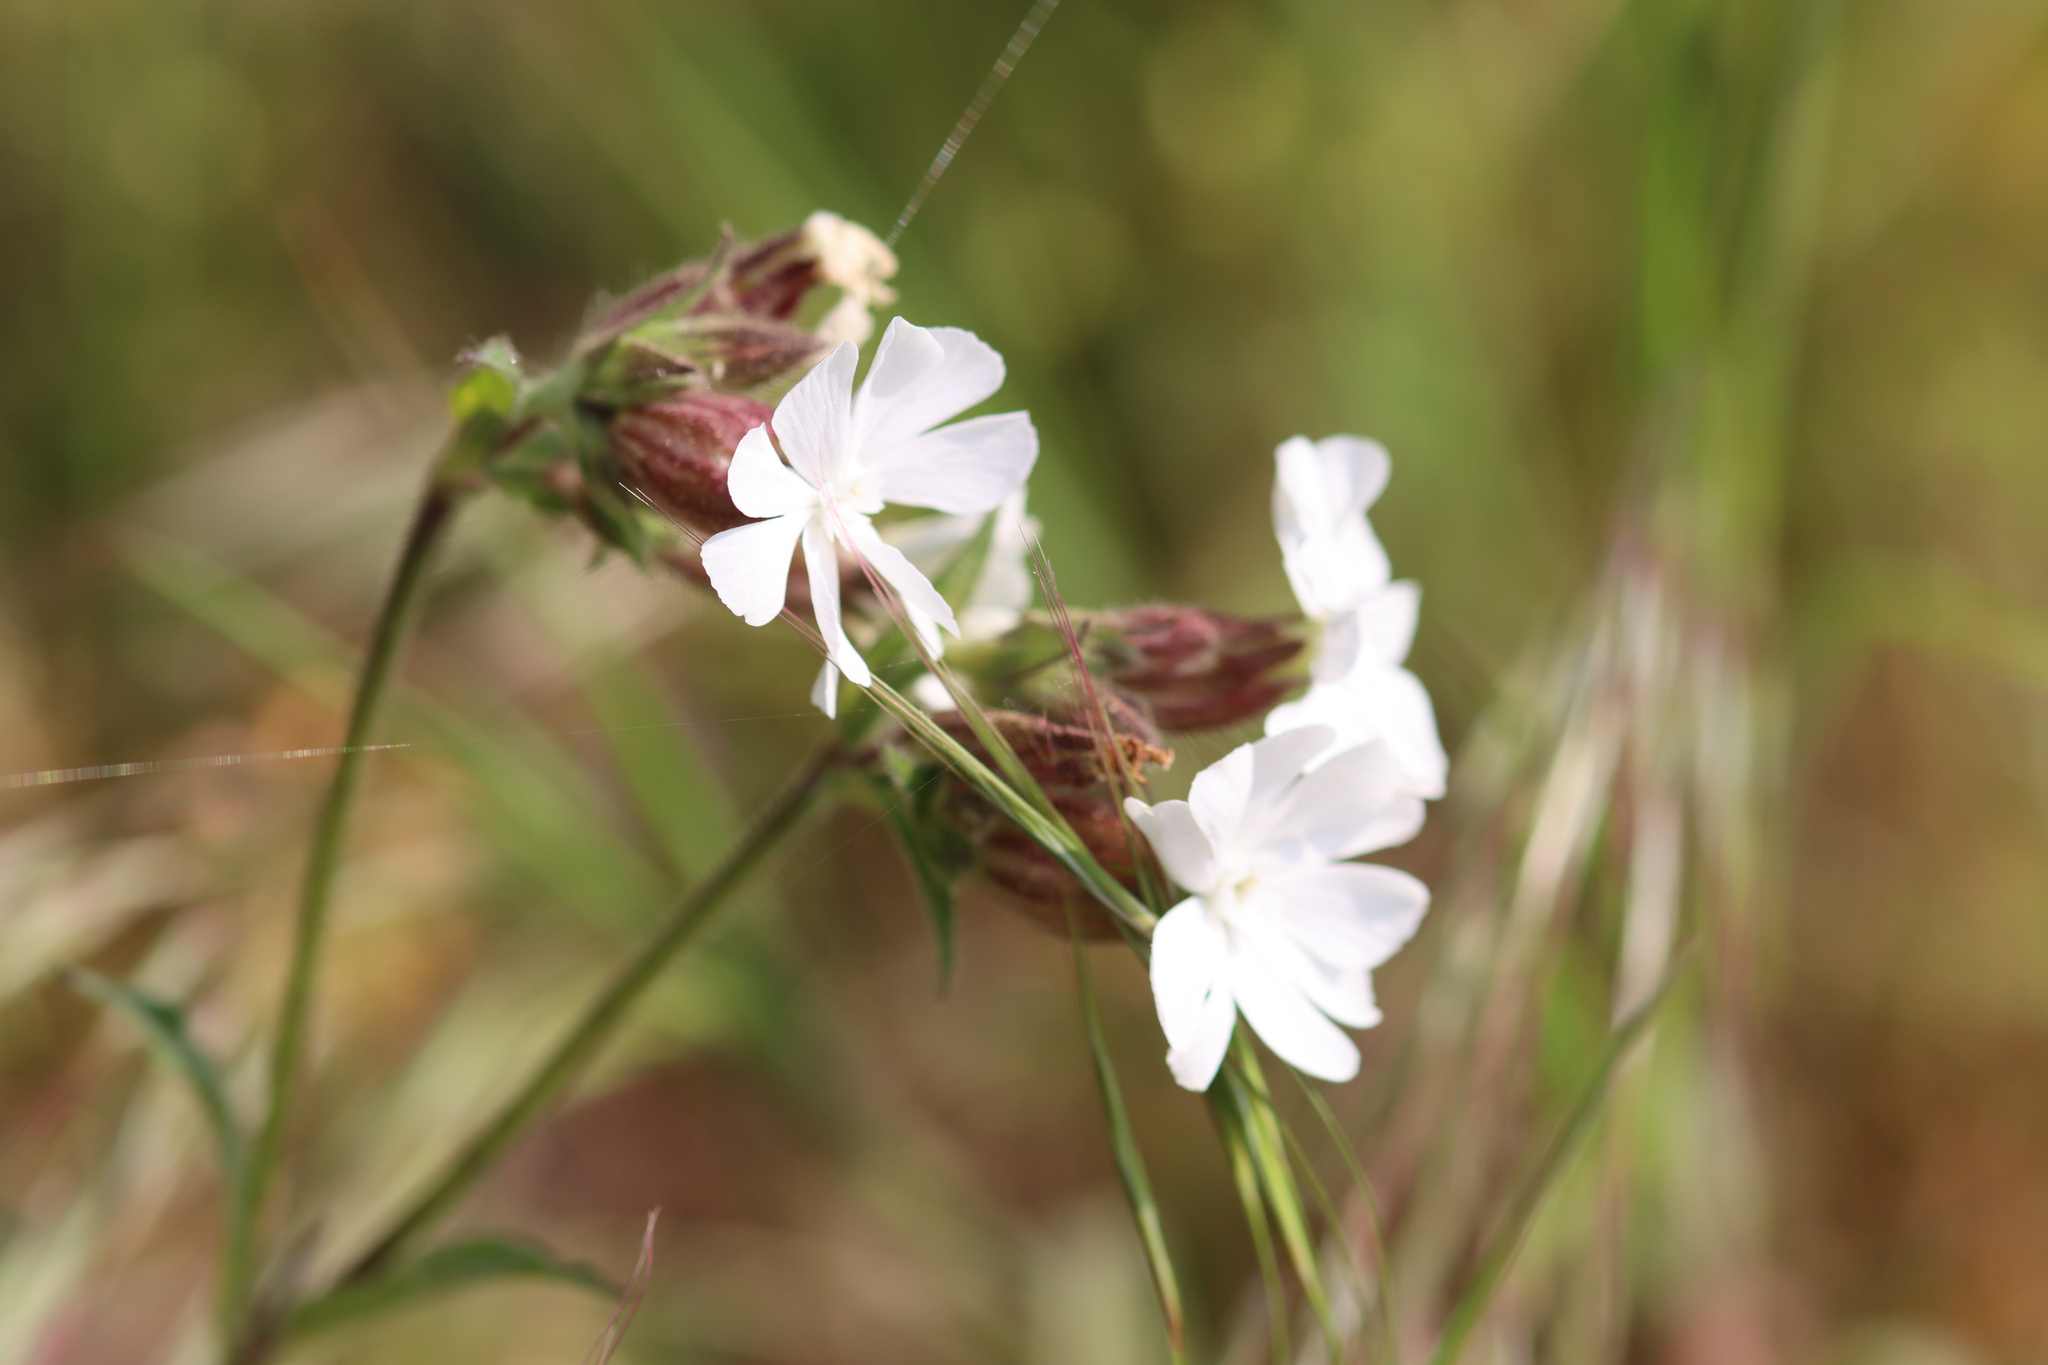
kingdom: Plantae
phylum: Tracheophyta
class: Magnoliopsida
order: Caryophyllales
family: Caryophyllaceae
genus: Silene
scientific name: Silene latifolia
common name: White campion
